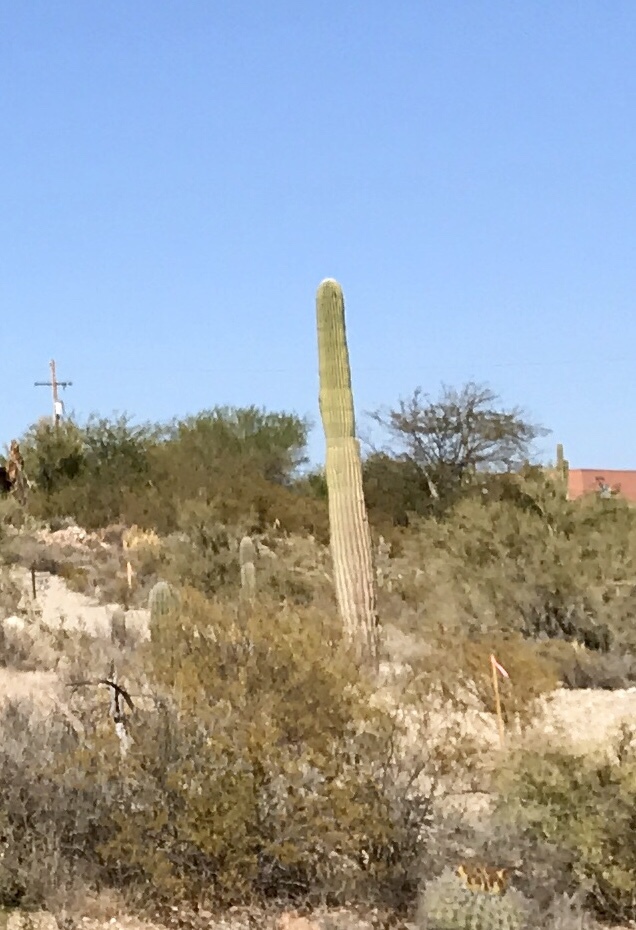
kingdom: Plantae
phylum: Tracheophyta
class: Magnoliopsida
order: Caryophyllales
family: Cactaceae
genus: Carnegiea
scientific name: Carnegiea gigantea
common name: Saguaro
